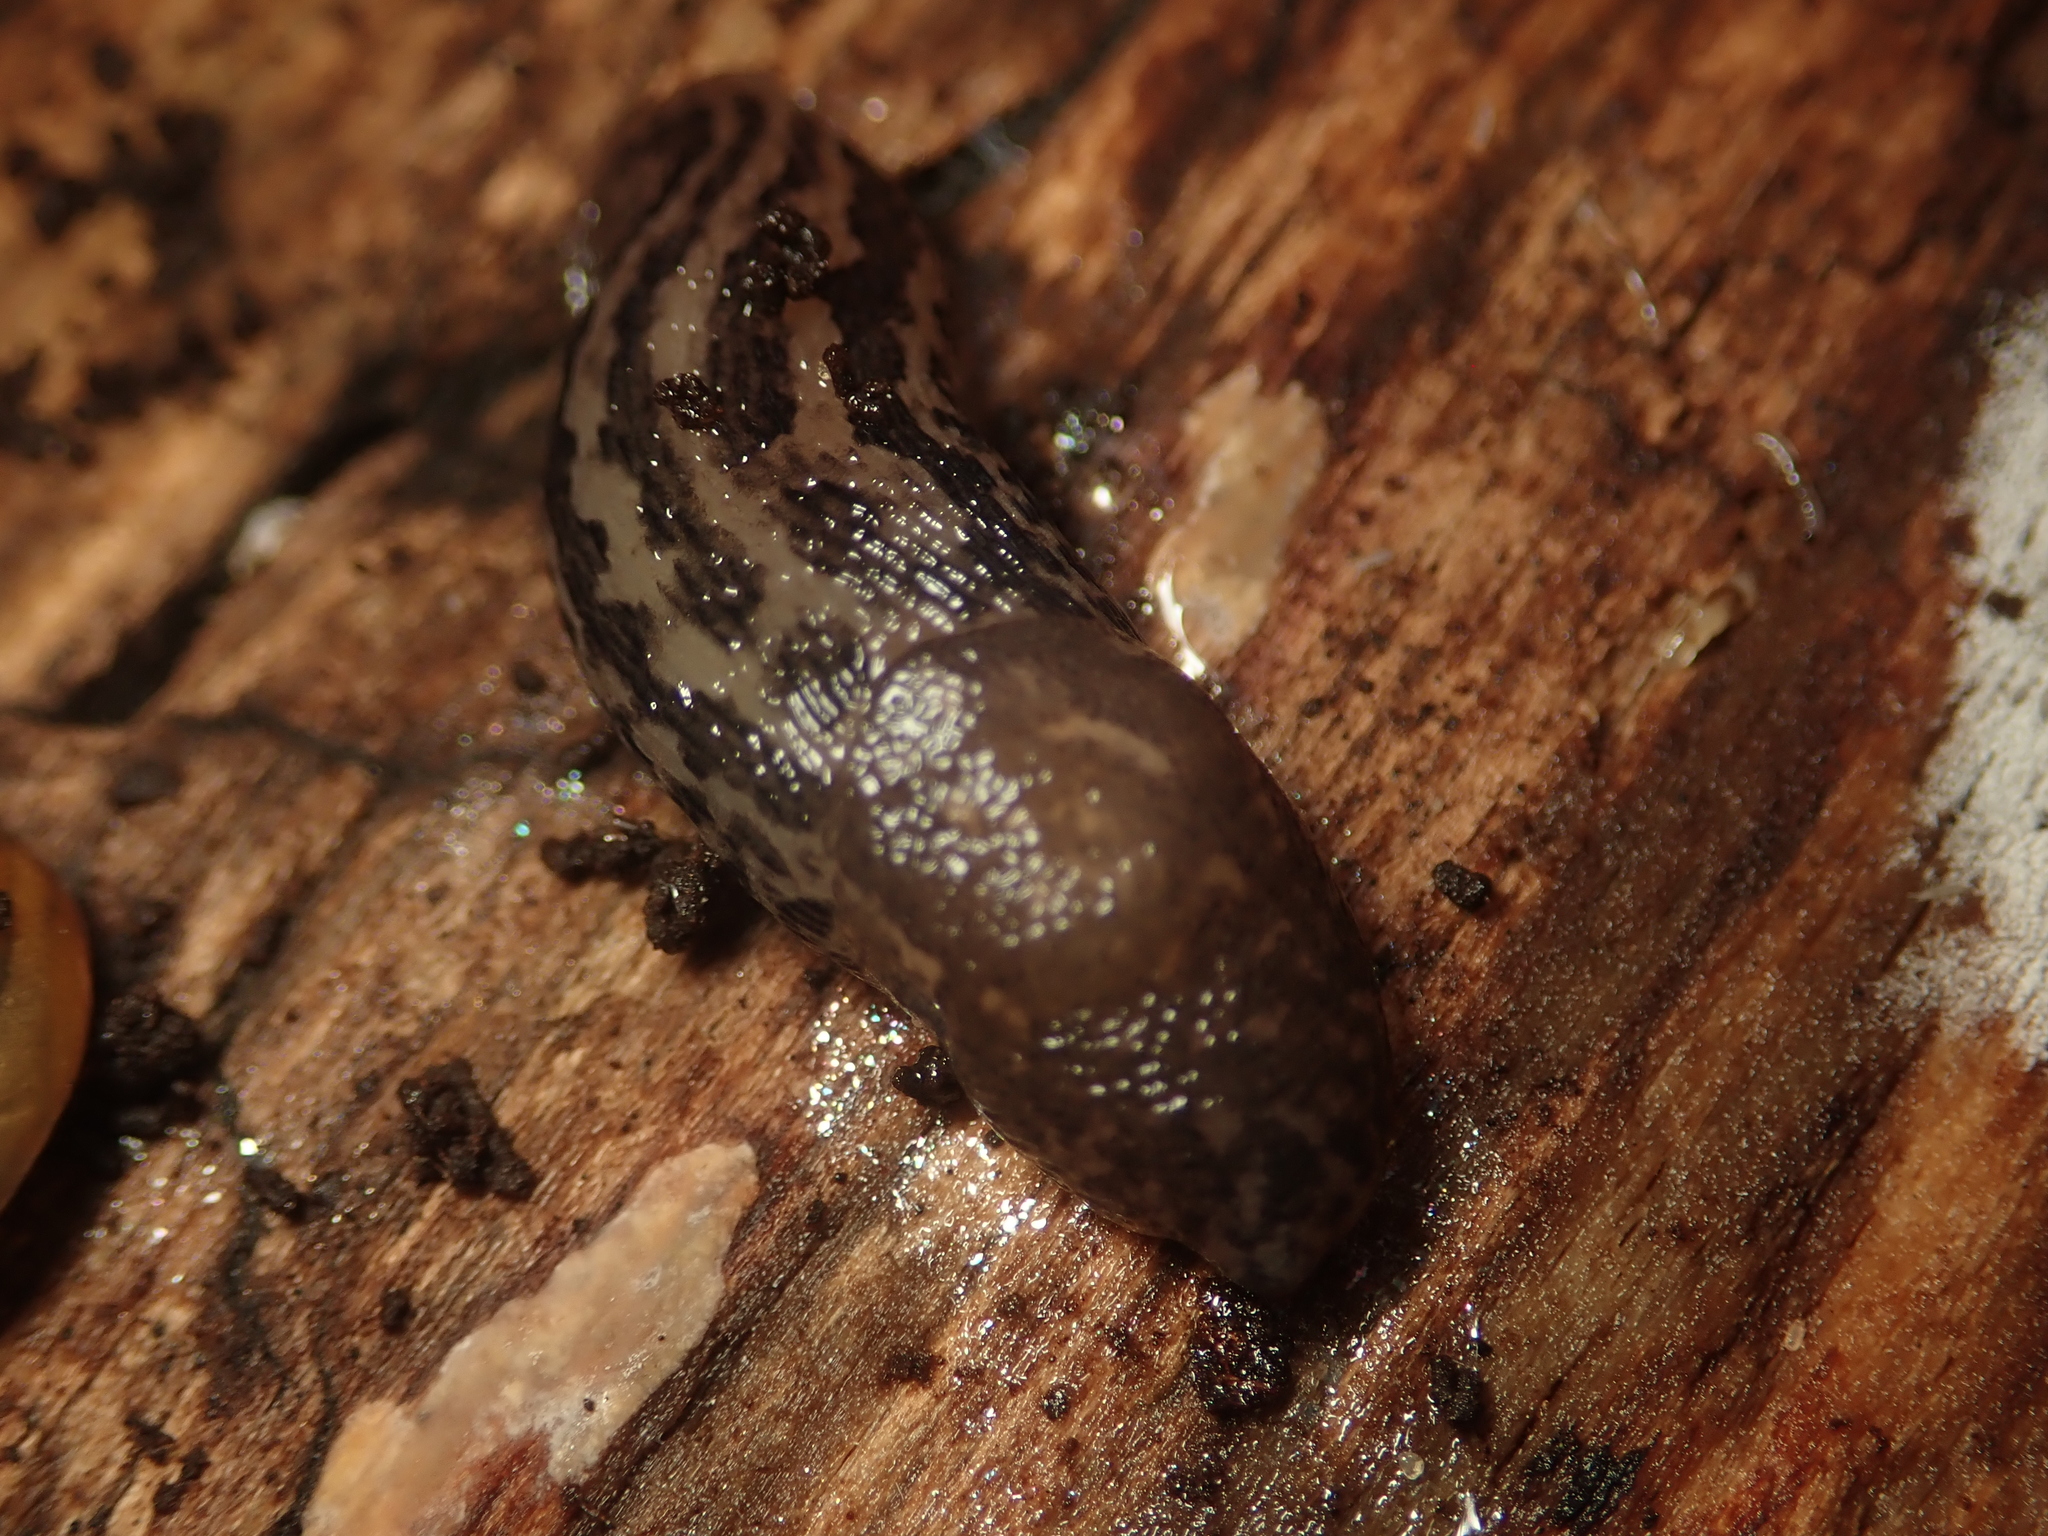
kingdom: Animalia
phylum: Mollusca
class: Gastropoda
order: Stylommatophora
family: Limacidae
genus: Limax
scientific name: Limax maximus
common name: Great grey slug
